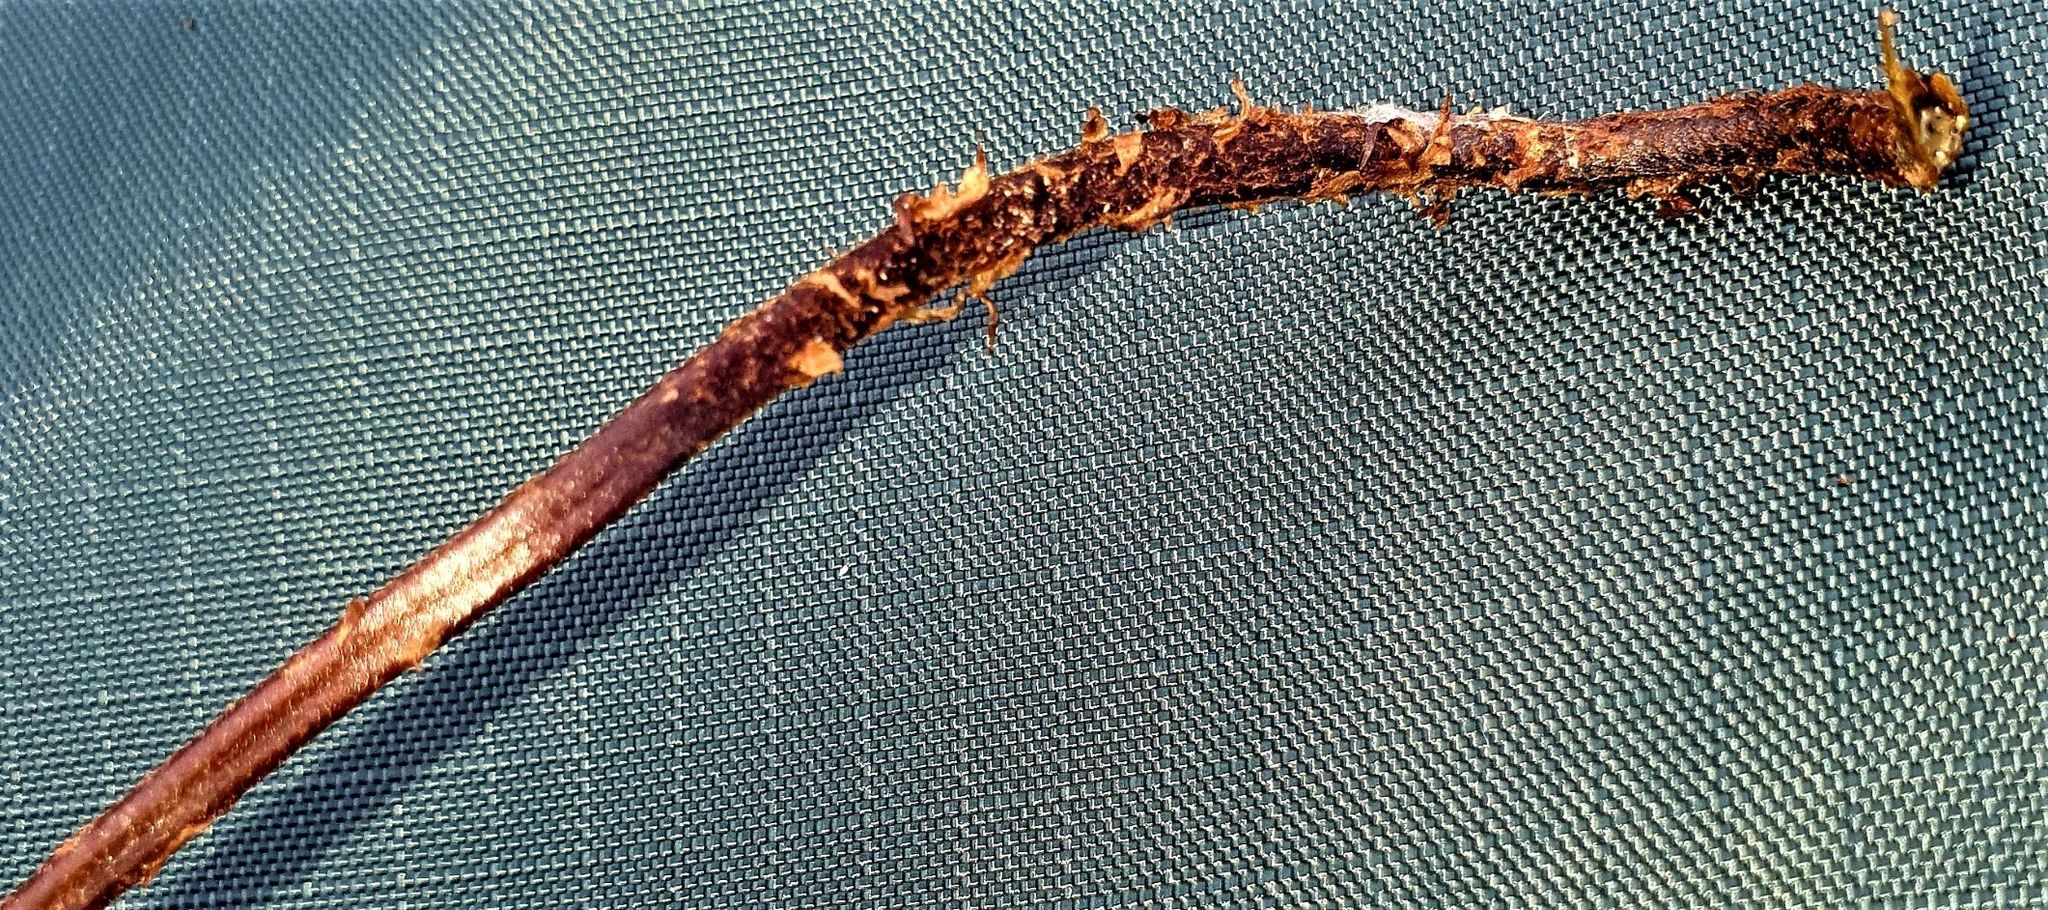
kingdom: Plantae
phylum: Tracheophyta
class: Polypodiopsida
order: Polypodiales
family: Dryopteridaceae
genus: Parapolystichum
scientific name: Parapolystichum microsorum
